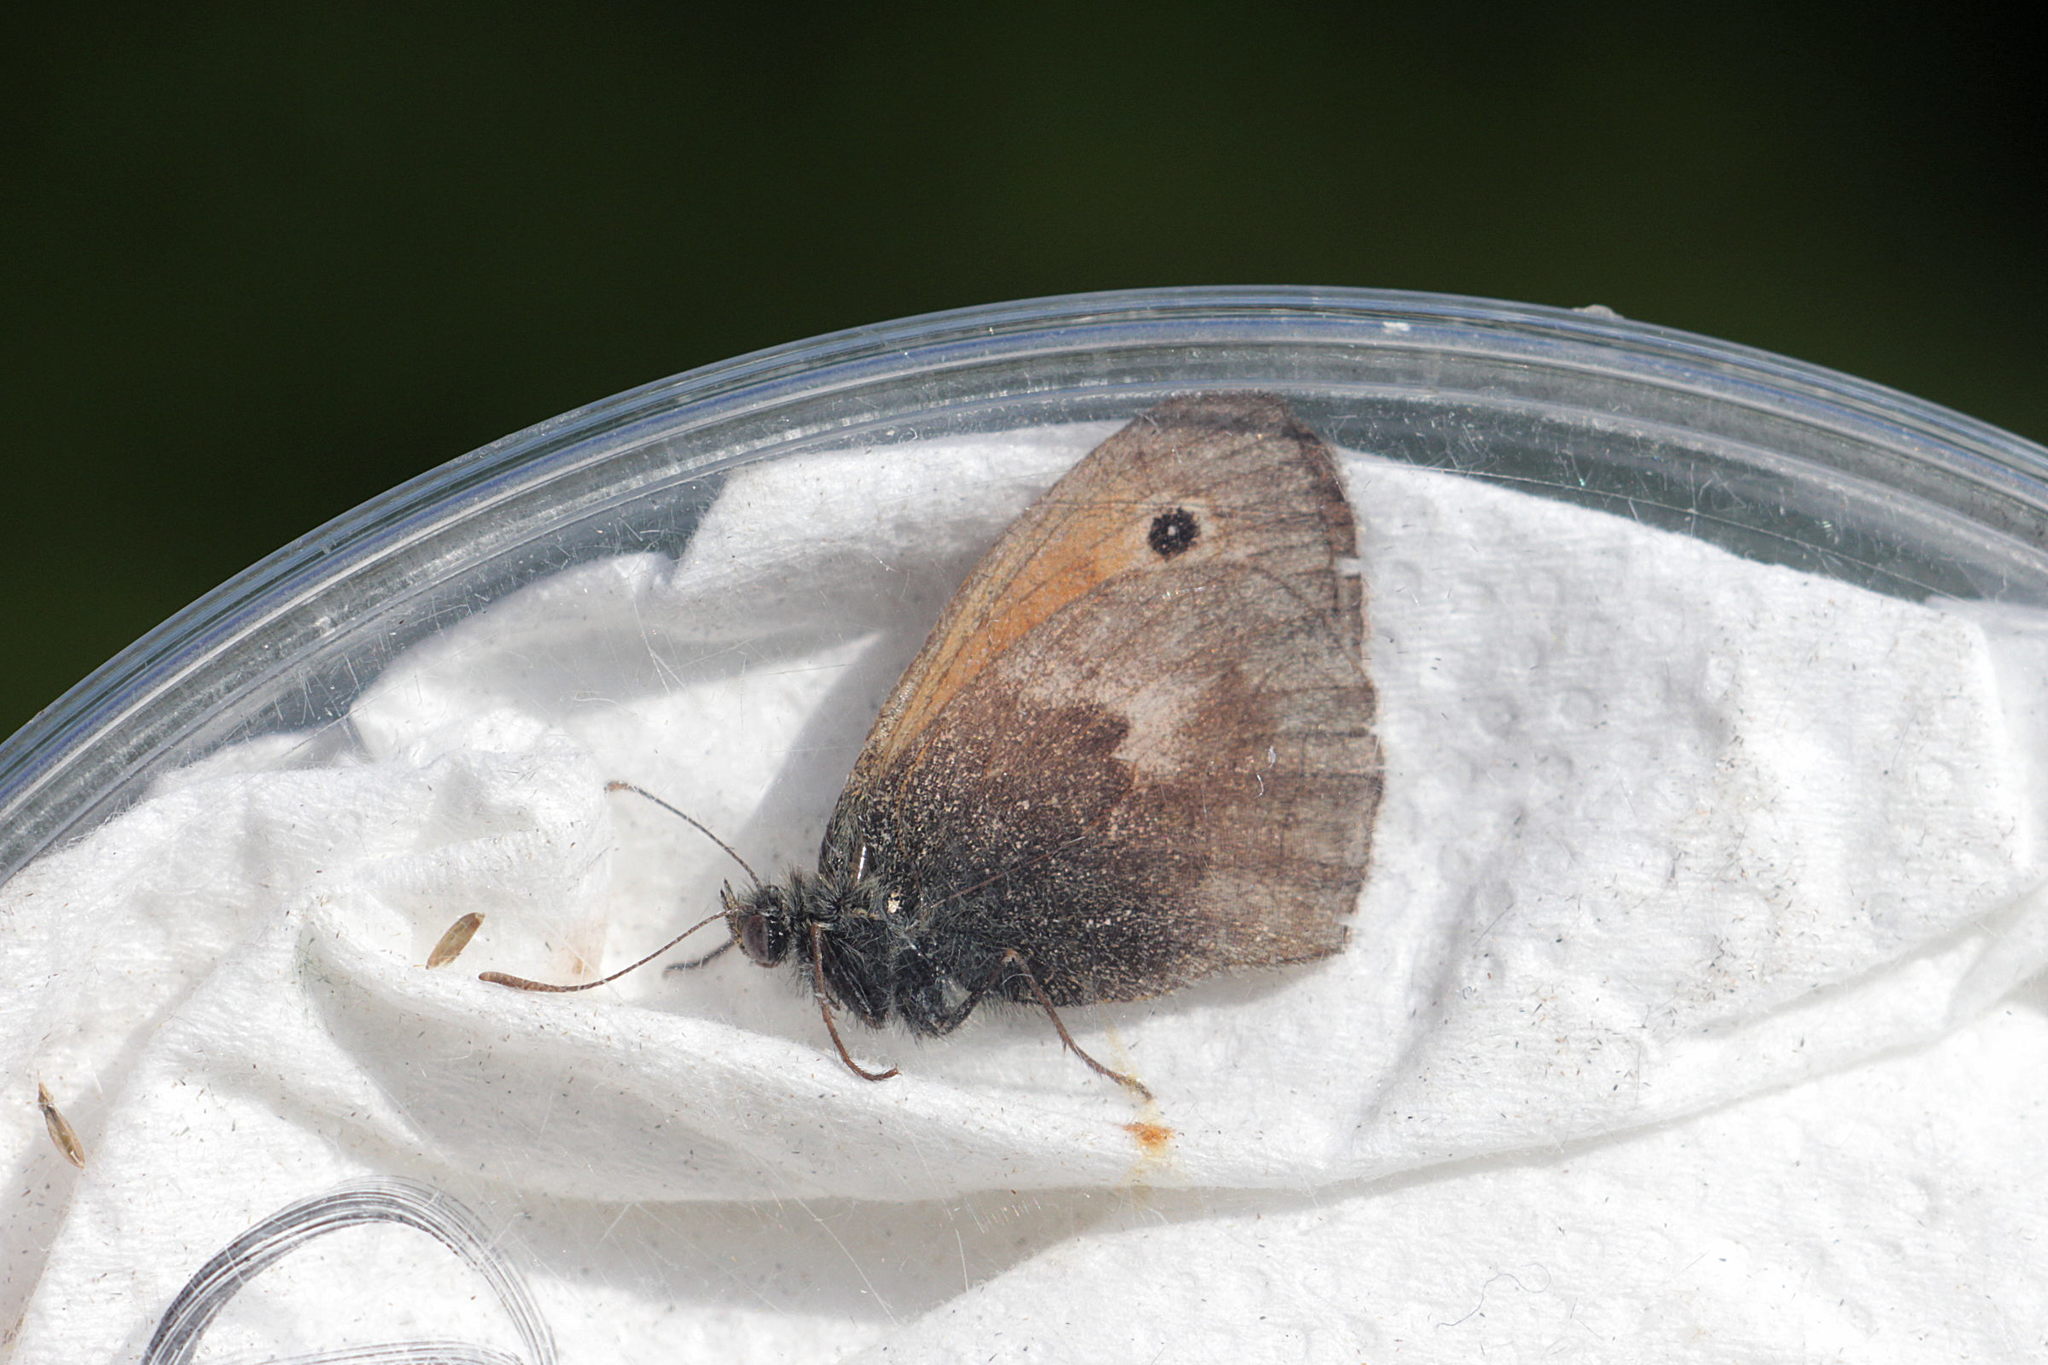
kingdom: Animalia
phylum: Arthropoda
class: Insecta
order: Lepidoptera
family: Nymphalidae
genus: Coenonympha
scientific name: Coenonympha pamphilus
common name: Small heath
